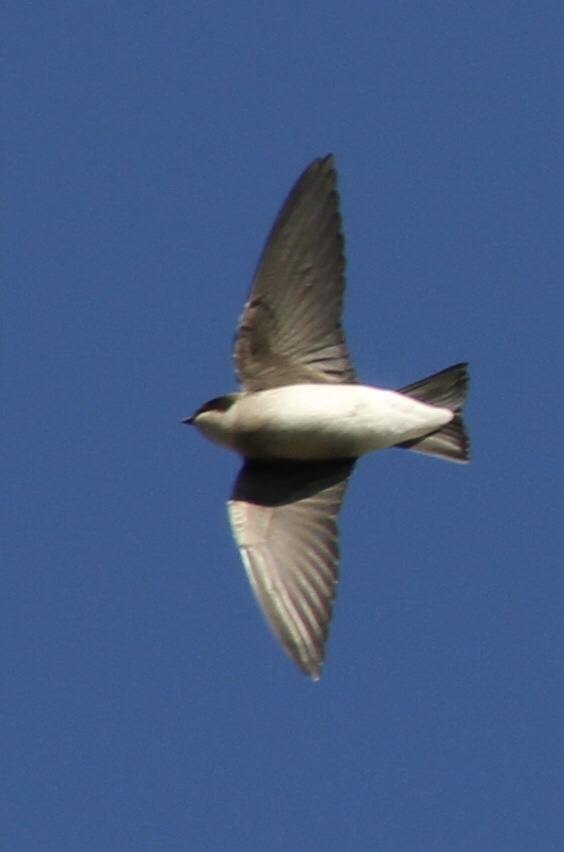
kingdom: Animalia
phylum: Chordata
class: Aves
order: Passeriformes
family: Hirundinidae
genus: Tachycineta
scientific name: Tachycineta bicolor
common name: Tree swallow
